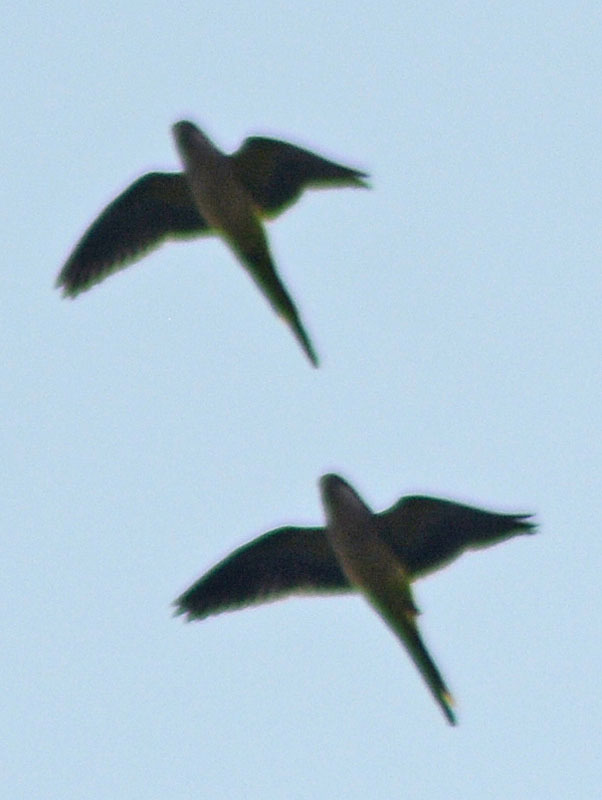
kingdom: Animalia
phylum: Chordata
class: Aves
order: Psittaciformes
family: Psittacidae
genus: Myiopsitta
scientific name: Myiopsitta monachus
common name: Monk parakeet
